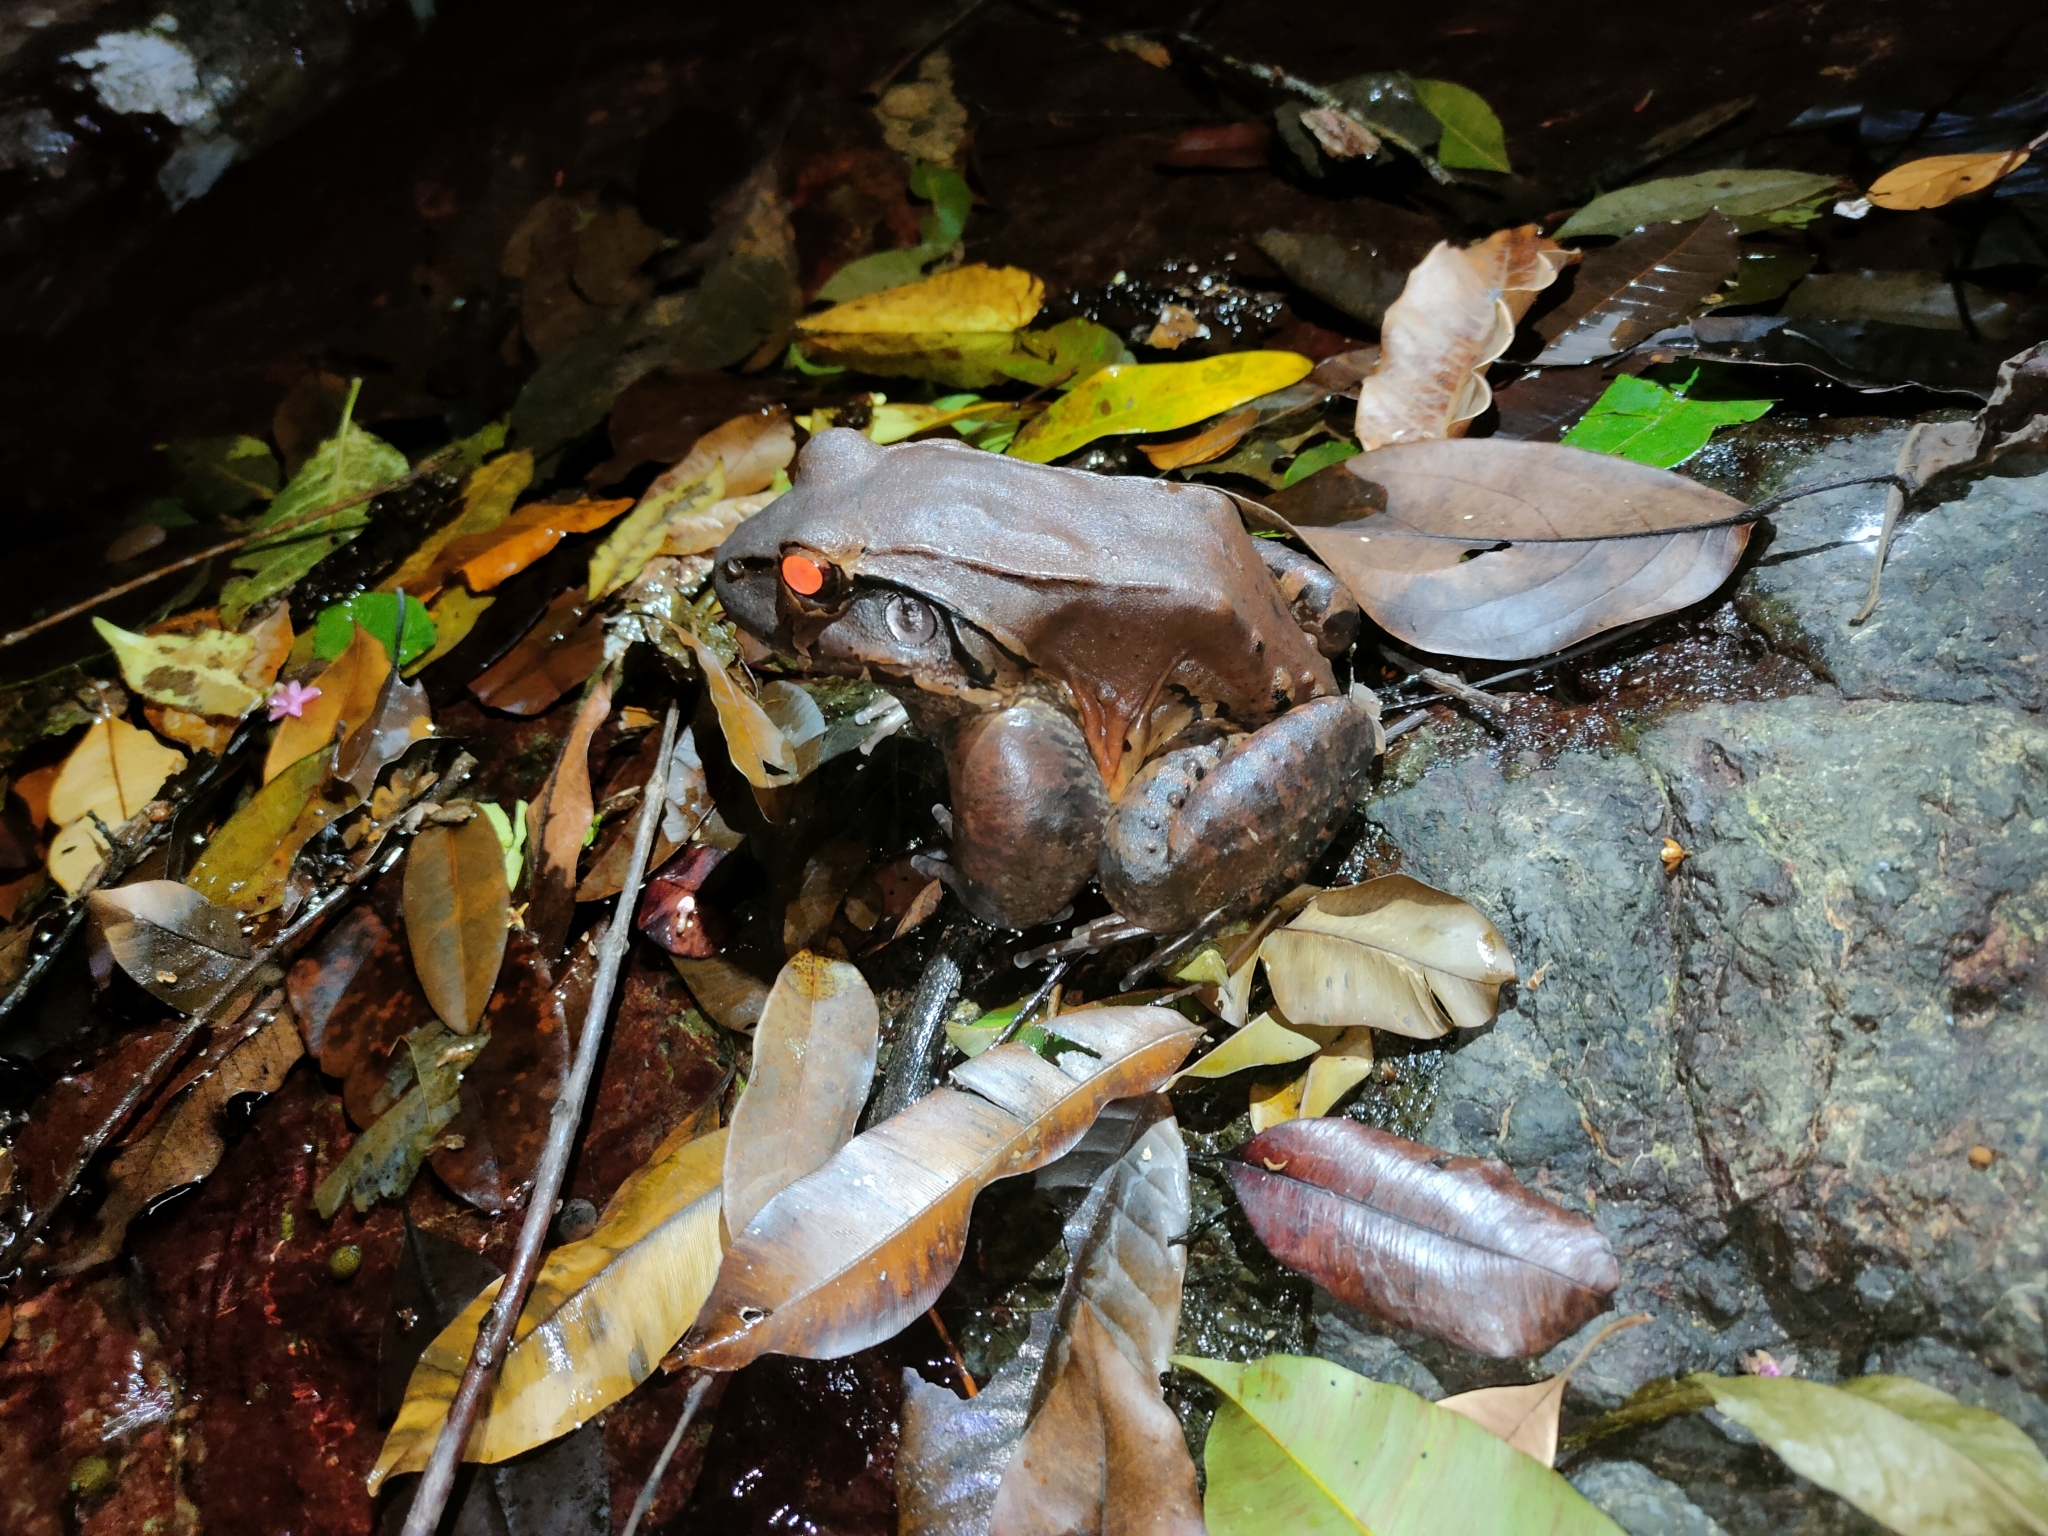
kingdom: Animalia
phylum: Chordata
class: Amphibia
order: Anura
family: Leptodactylidae
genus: Leptodactylus
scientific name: Leptodactylus savagei
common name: Savage's thin-toed frog
